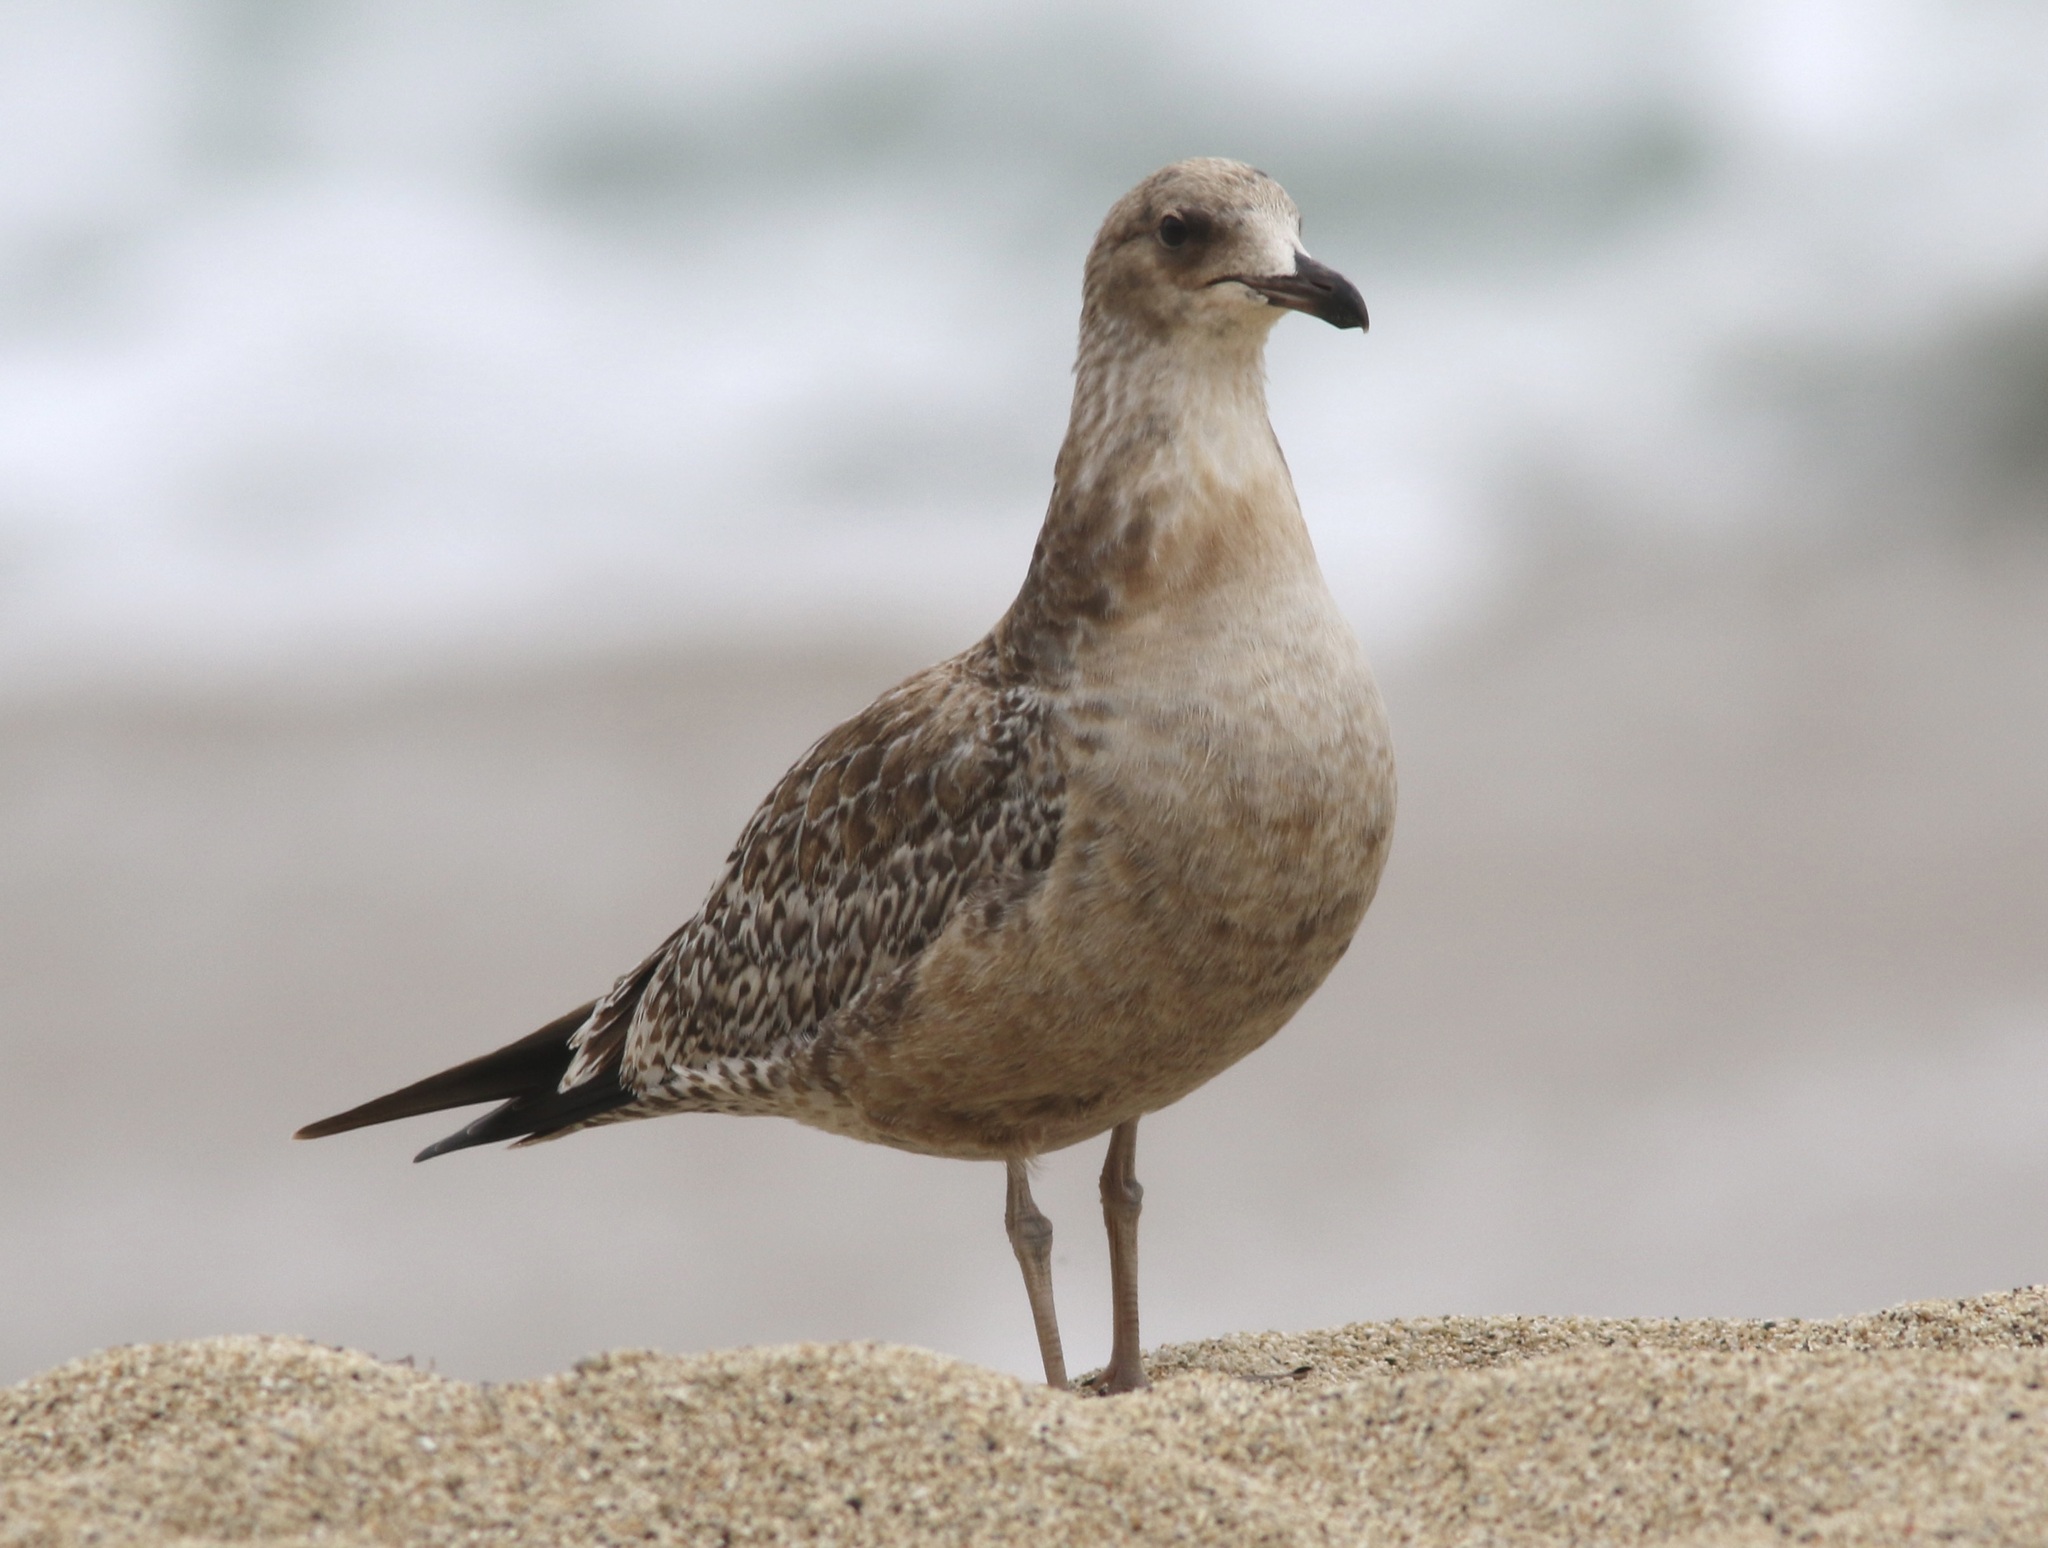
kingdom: Animalia
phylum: Chordata
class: Aves
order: Charadriiformes
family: Laridae
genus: Larus
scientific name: Larus californicus
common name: California gull
